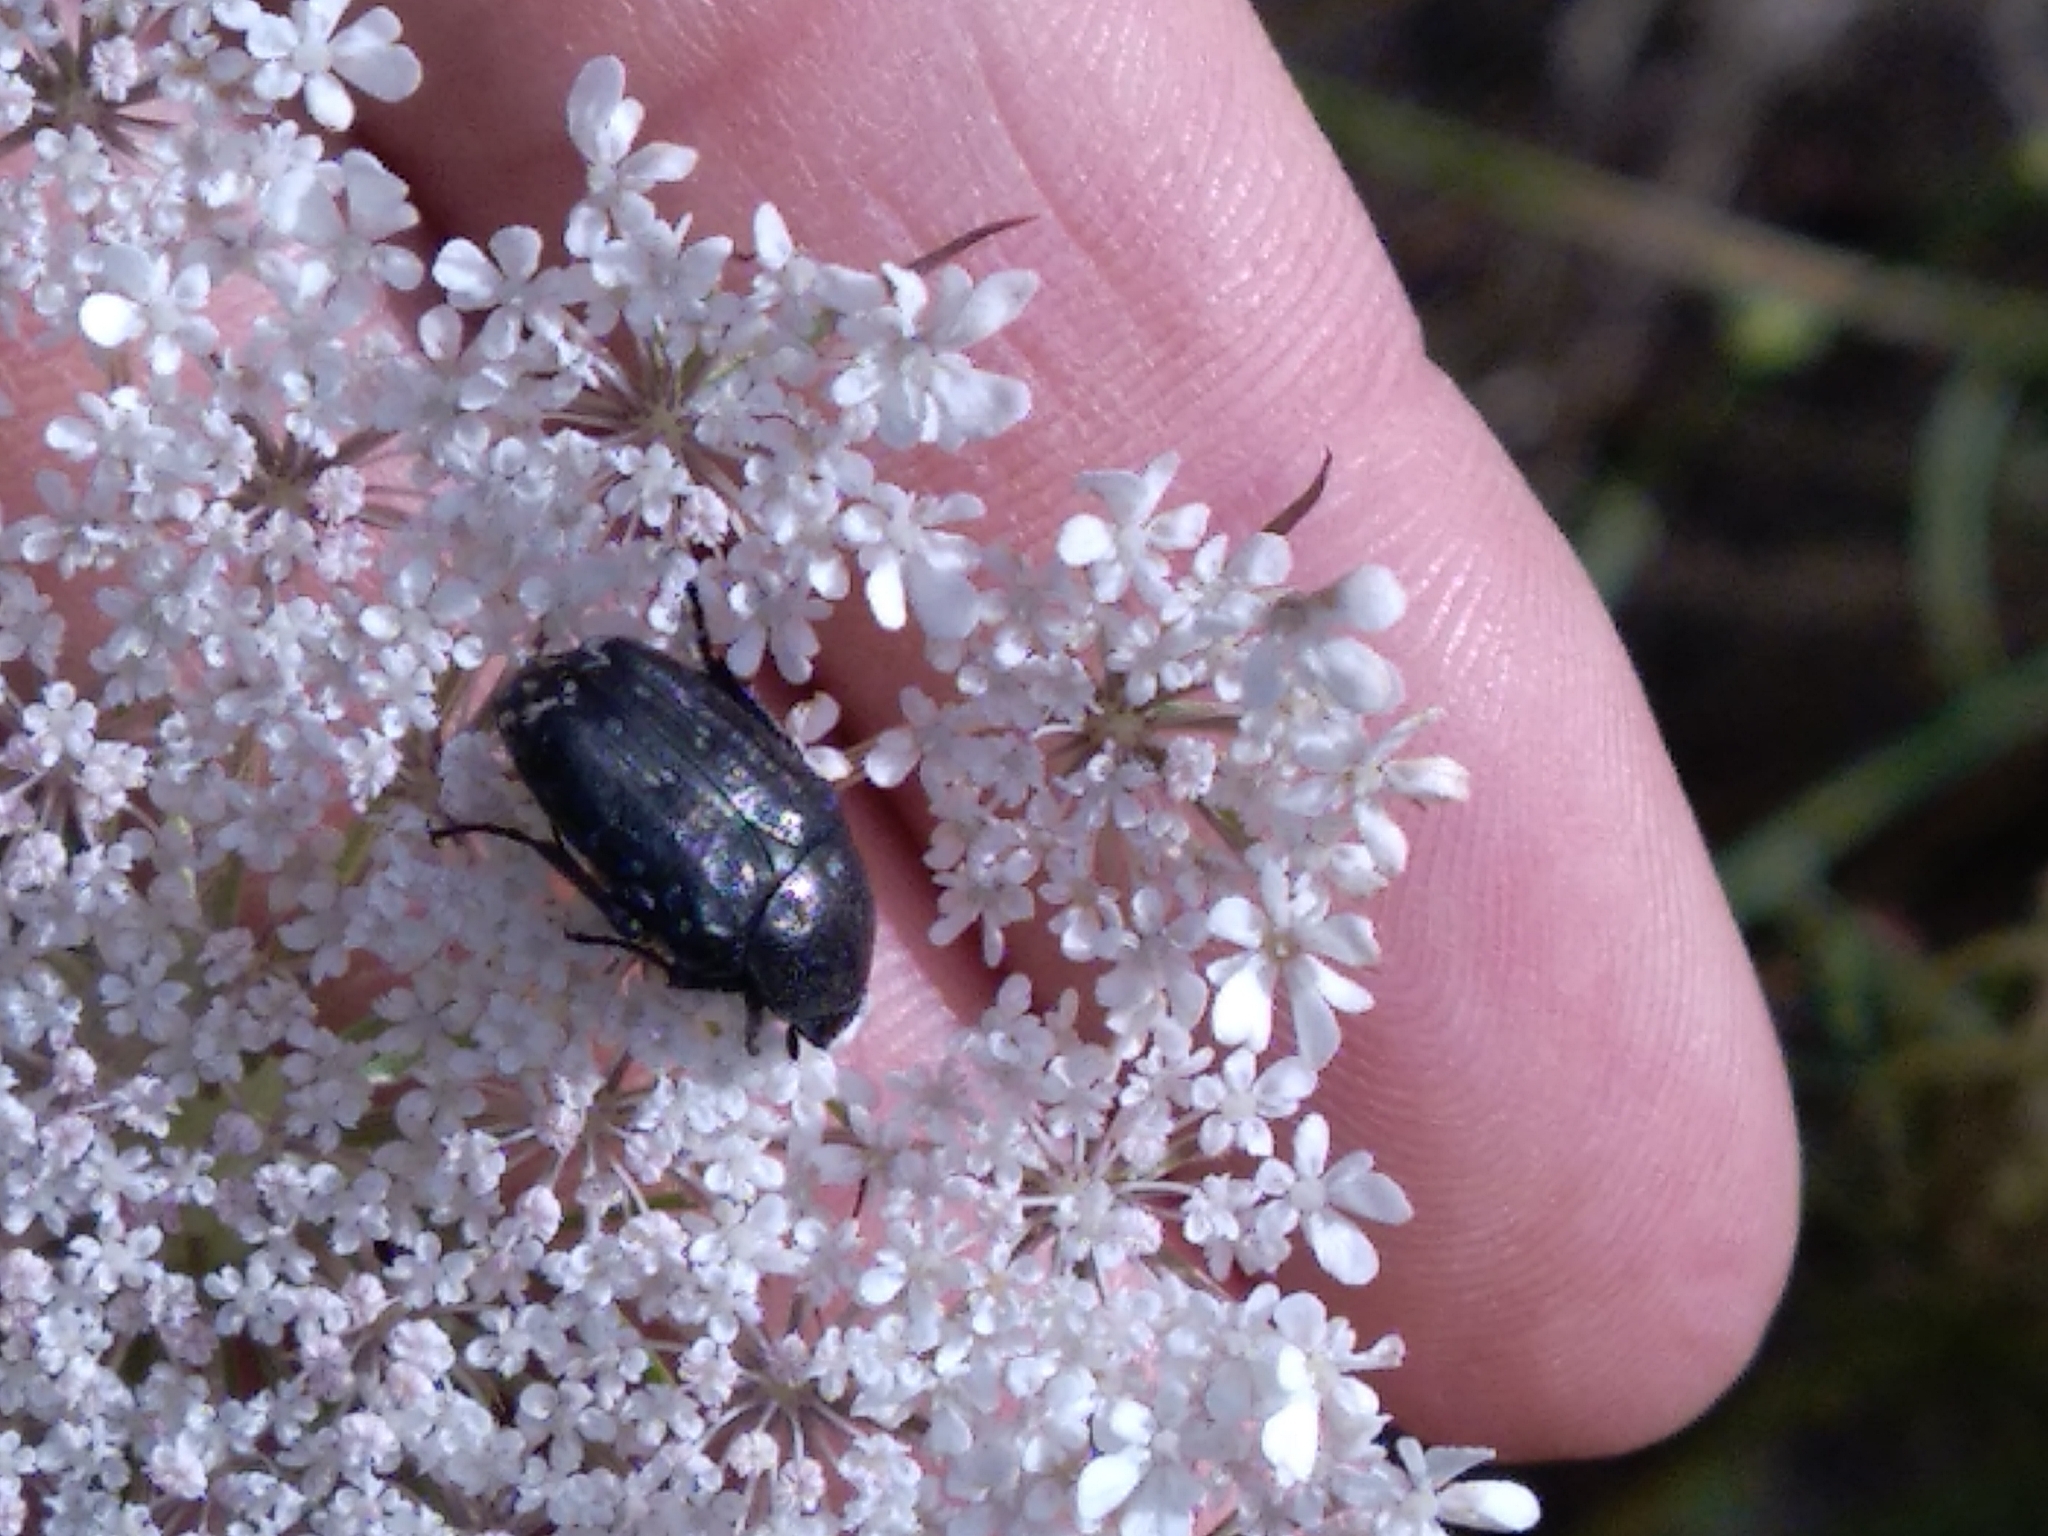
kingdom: Animalia
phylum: Arthropoda
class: Insecta
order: Coleoptera
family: Scarabaeidae
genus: Oxythyrea
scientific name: Oxythyrea funesta
